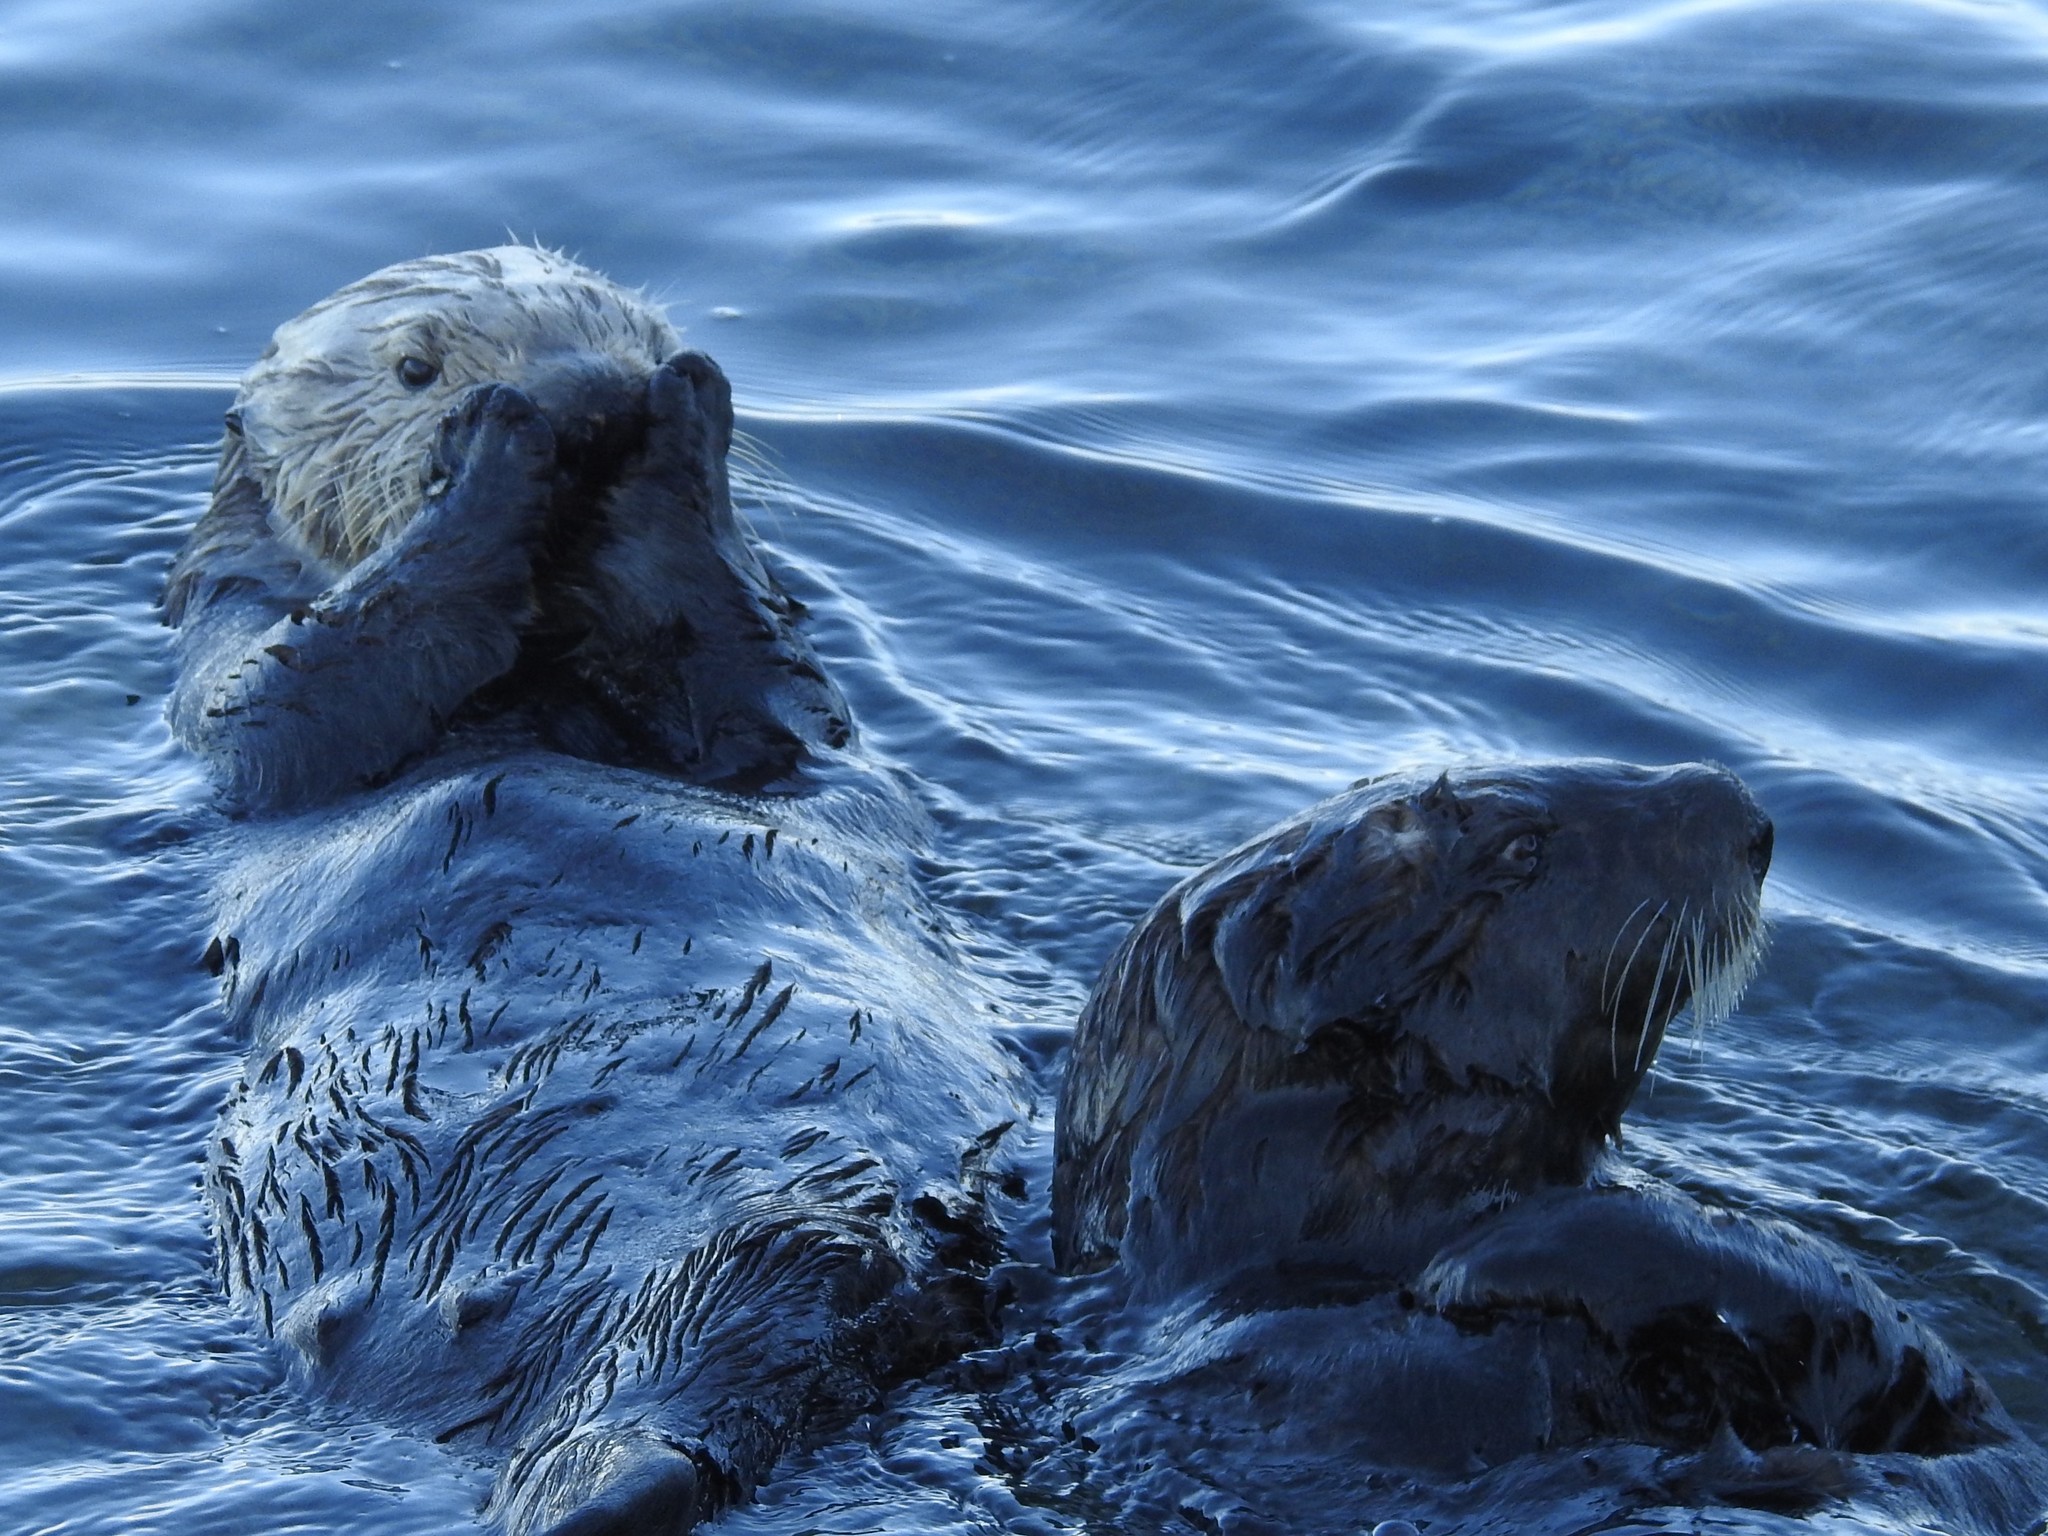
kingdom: Animalia
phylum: Chordata
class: Mammalia
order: Carnivora
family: Mustelidae
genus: Enhydra
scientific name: Enhydra lutris
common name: Sea otter
